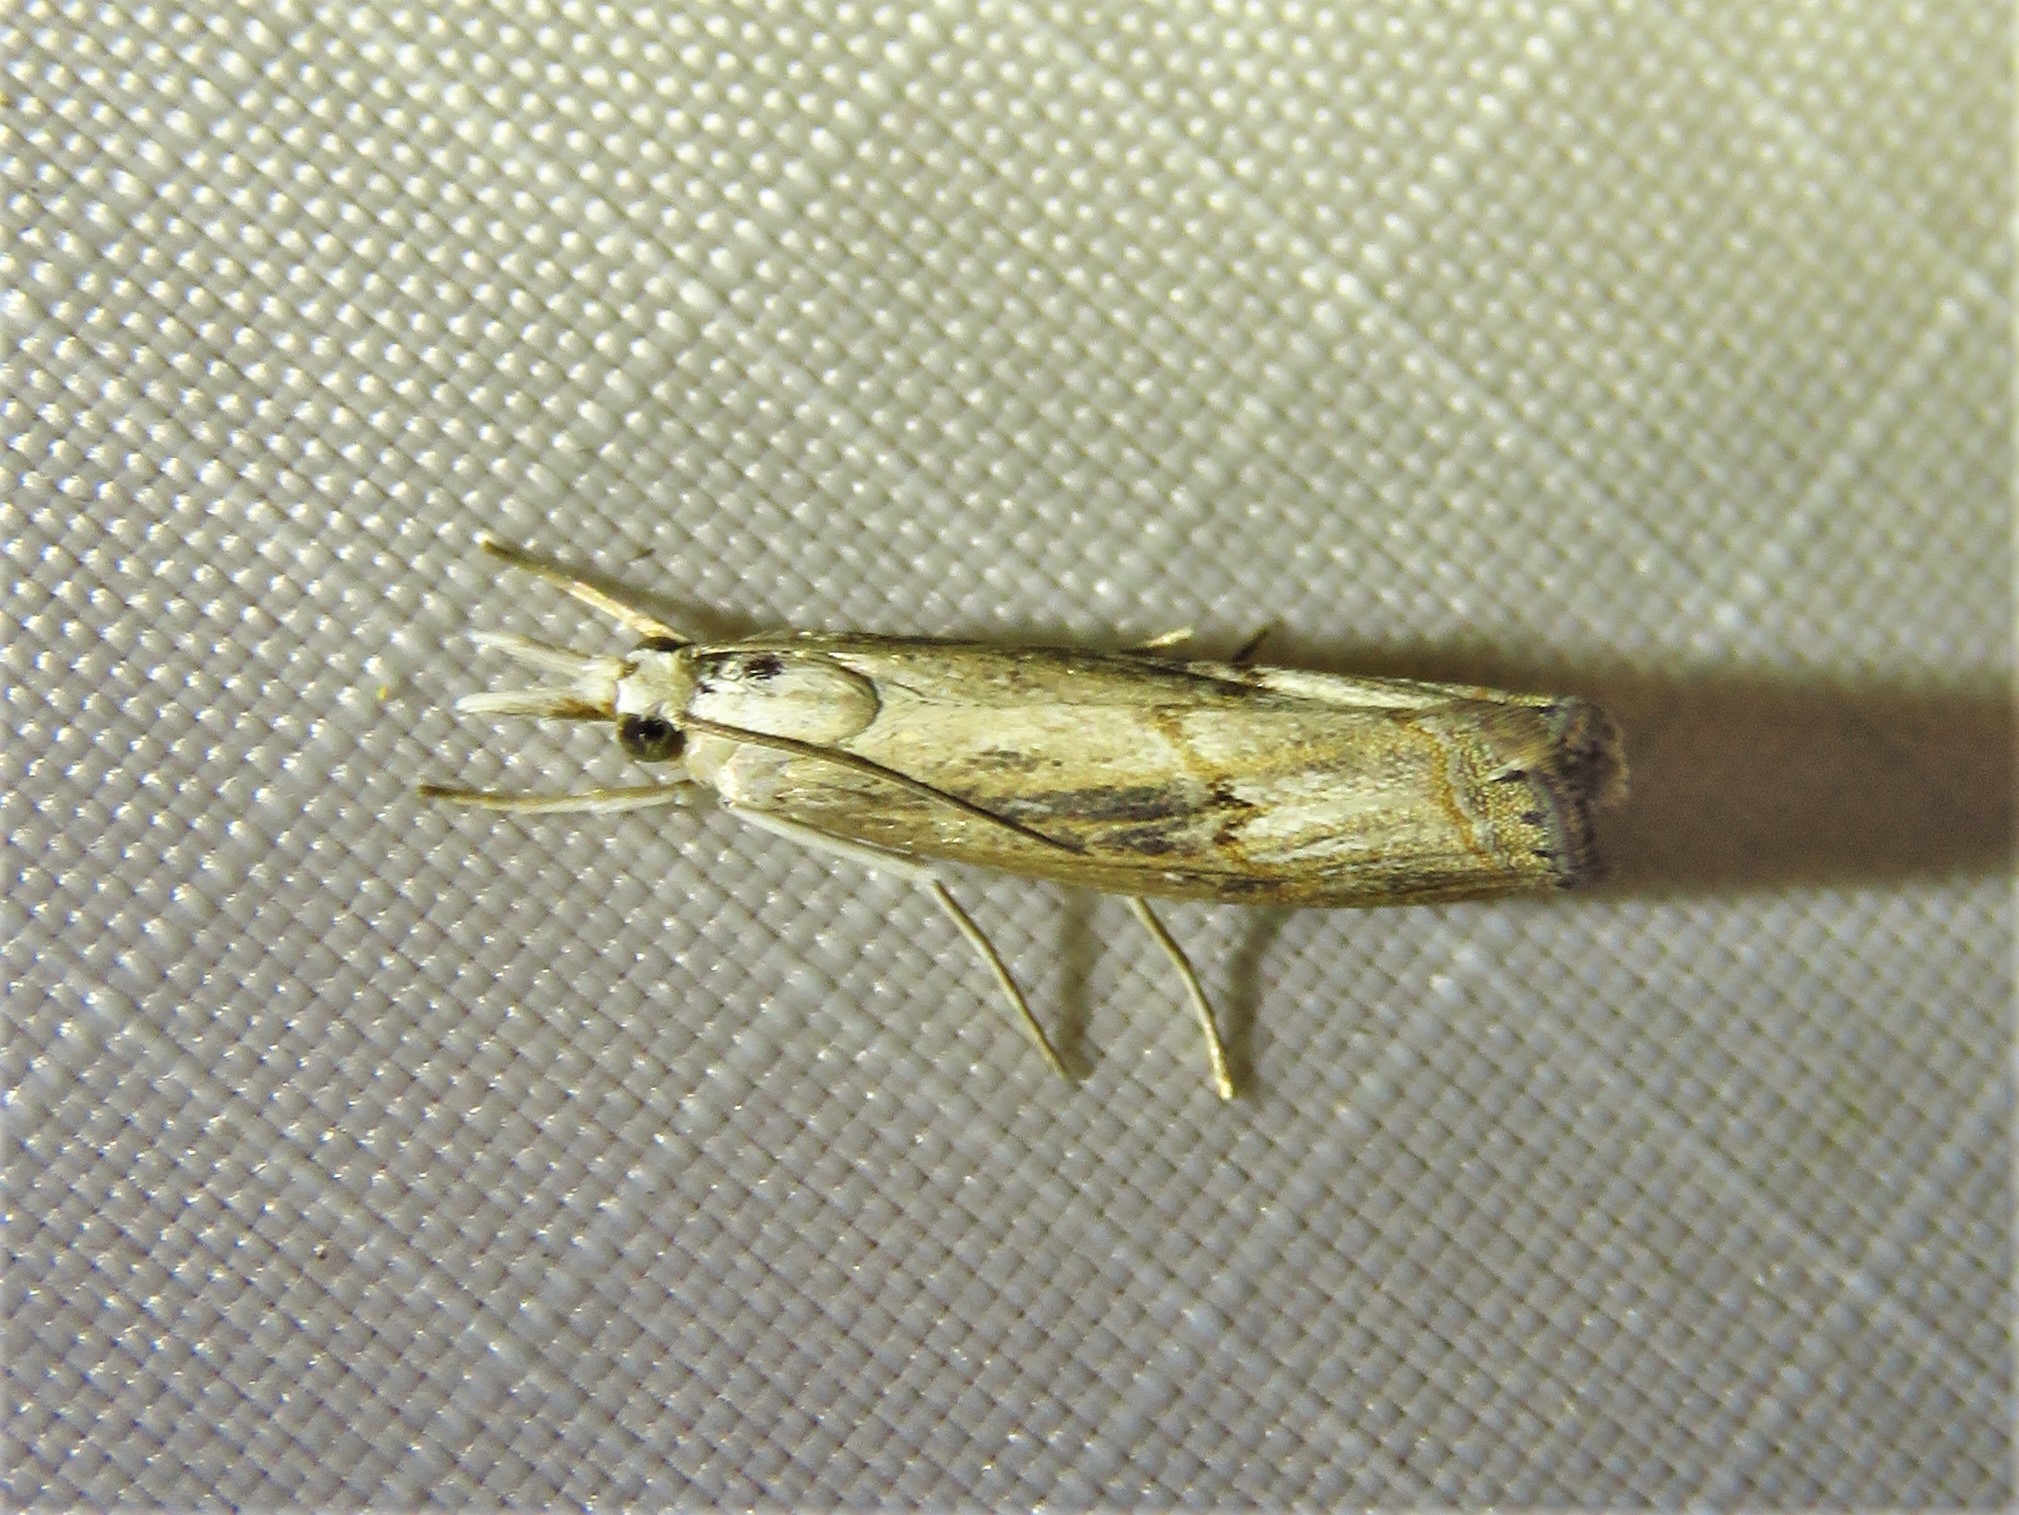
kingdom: Animalia
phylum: Arthropoda
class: Insecta
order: Lepidoptera
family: Crambidae
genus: Parapediasia
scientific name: Parapediasia teterellus
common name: Bluegrass webworm moth
